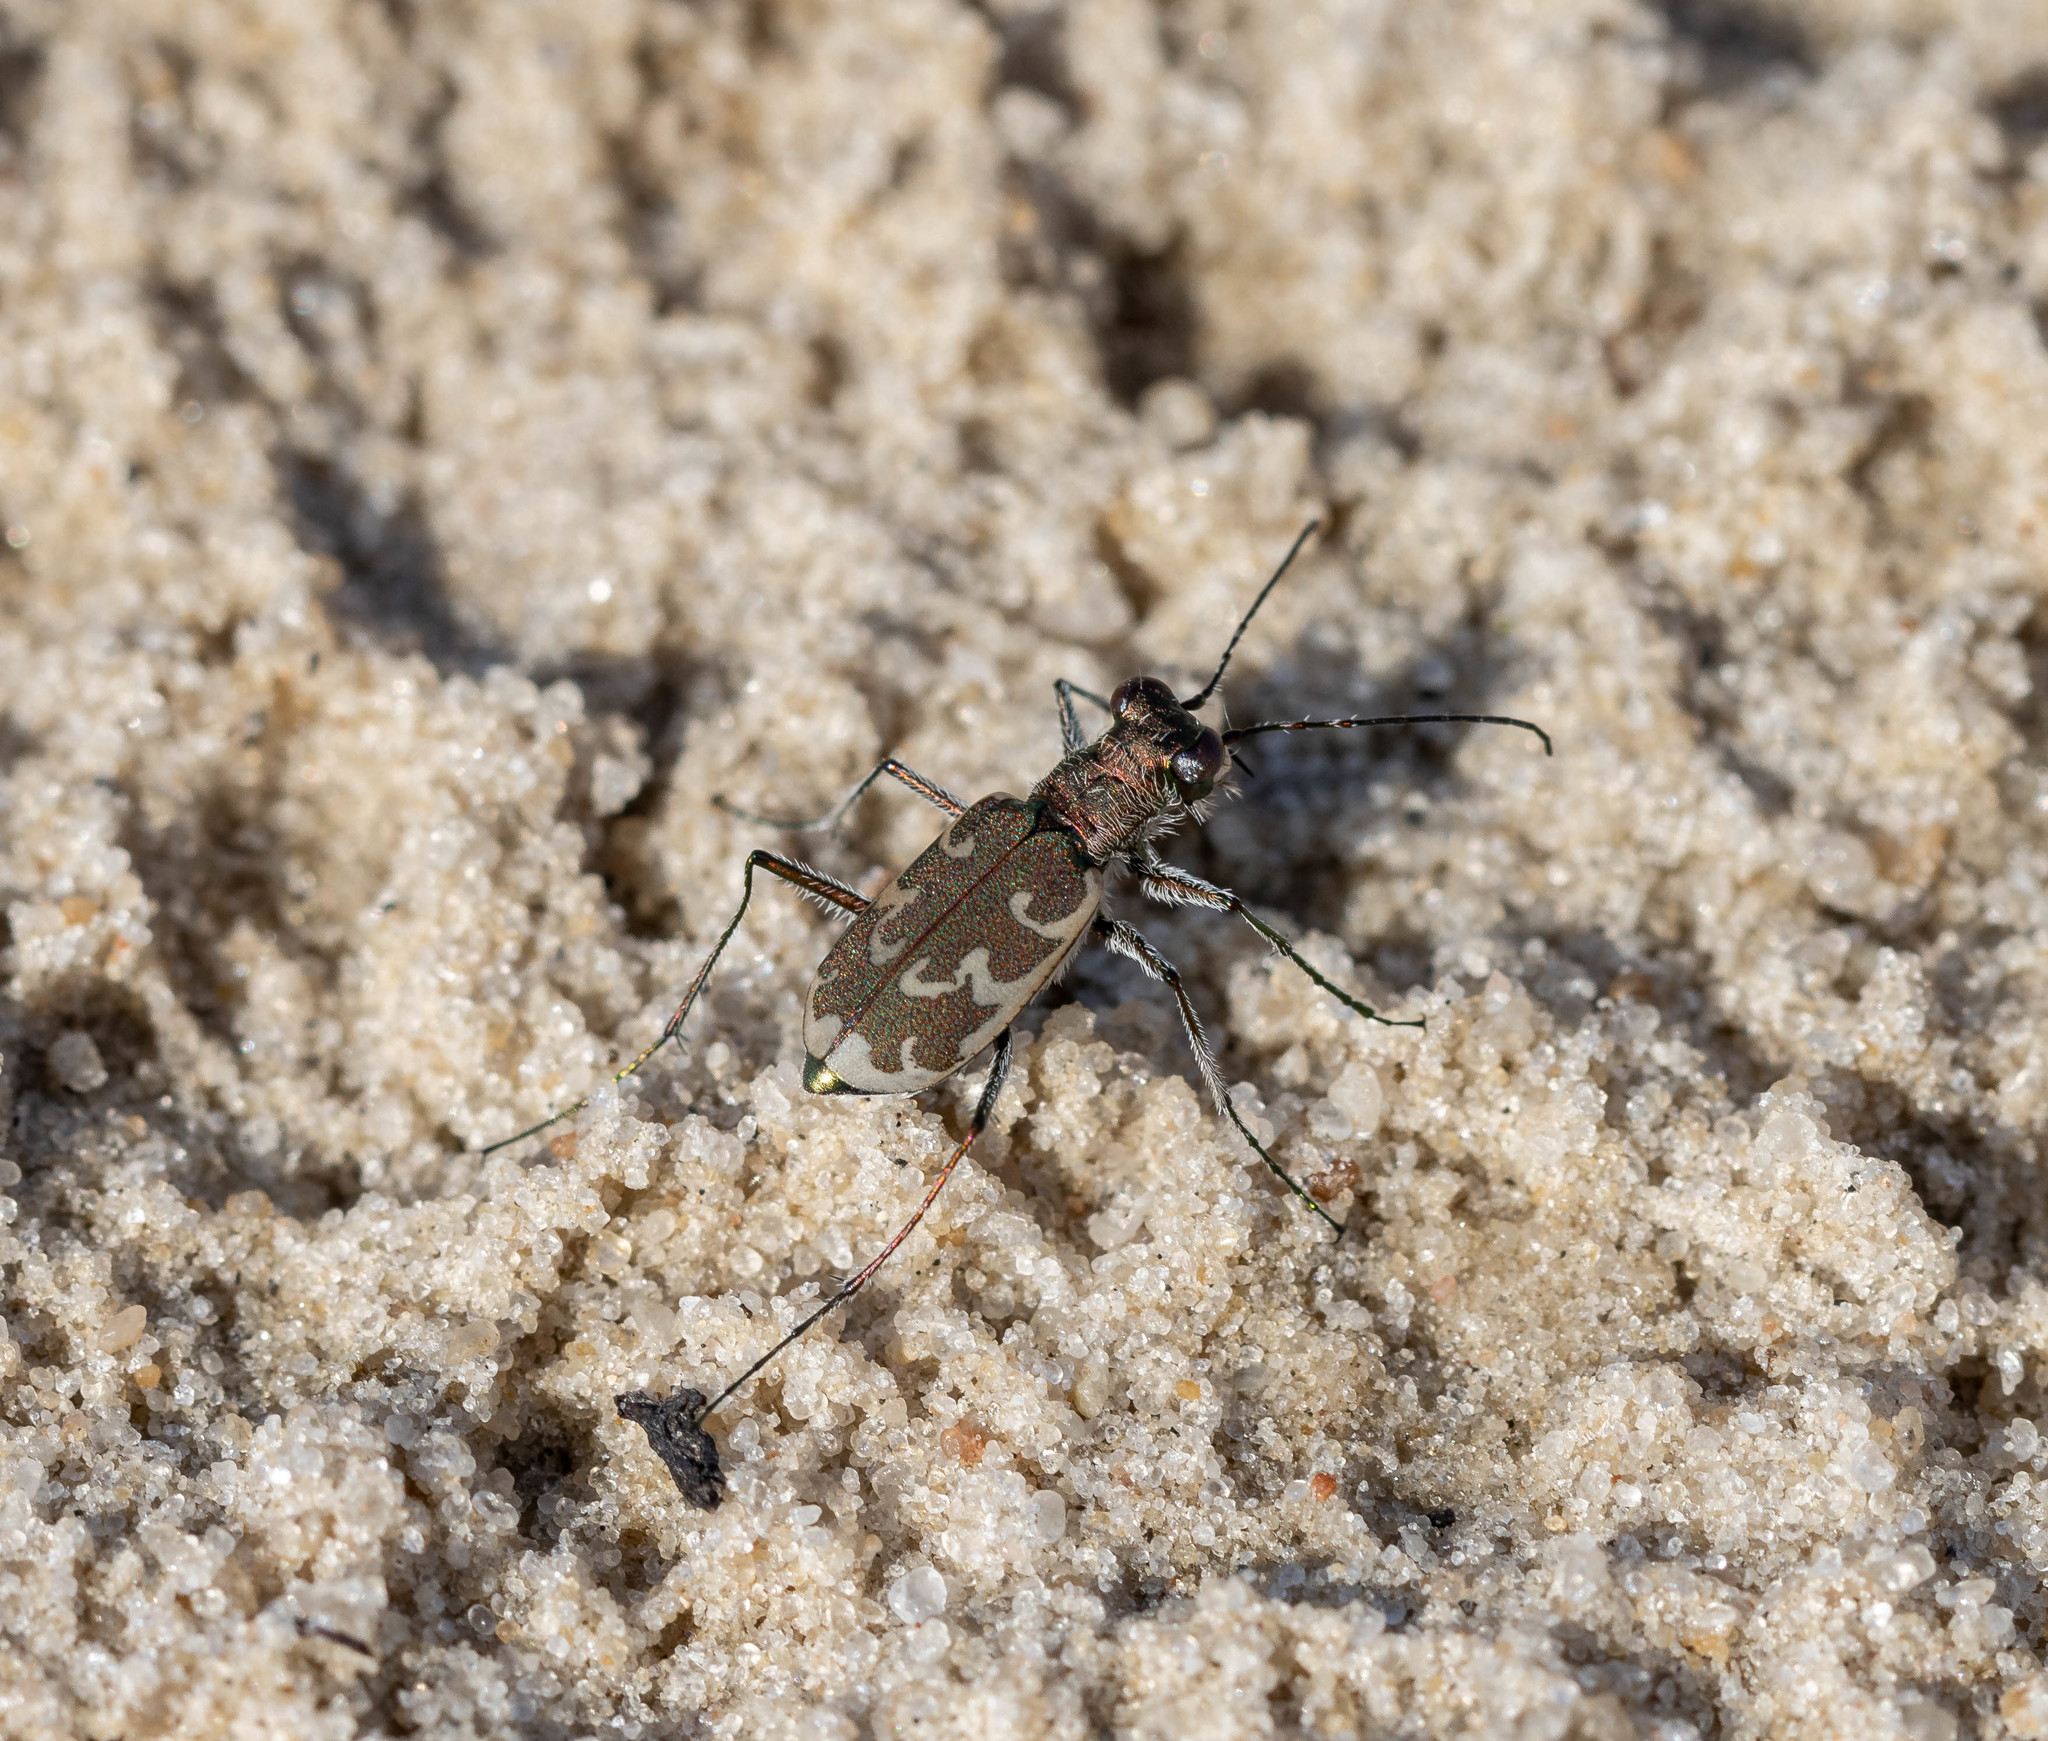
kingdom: Animalia
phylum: Arthropoda
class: Insecta
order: Coleoptera
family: Carabidae
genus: Cylindera
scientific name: Cylindera arenaria
